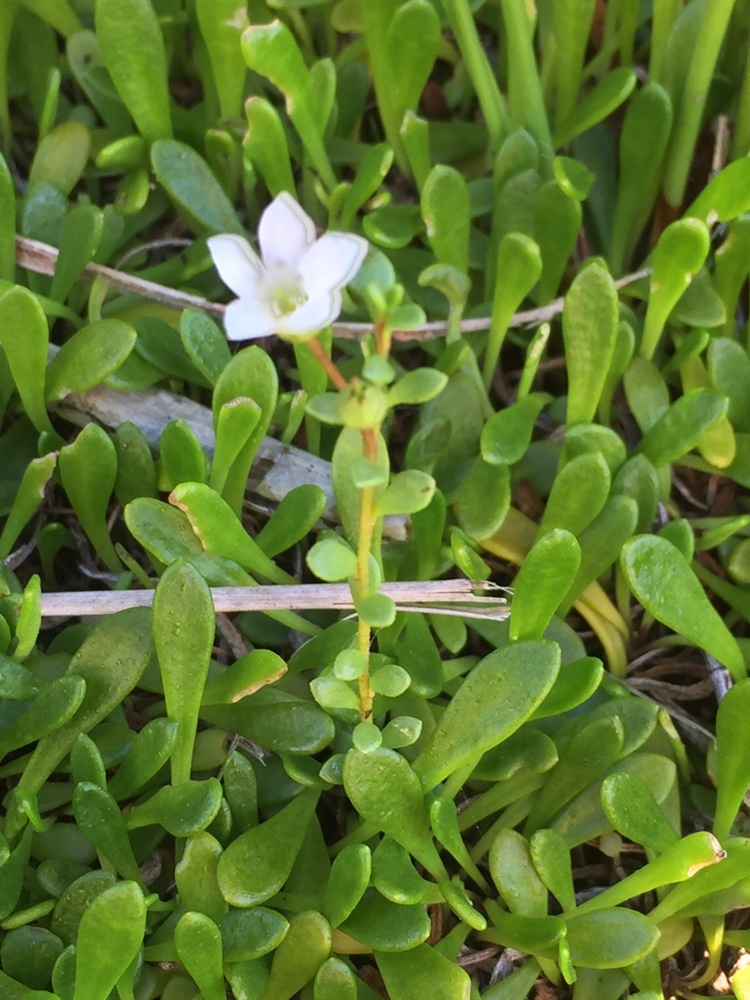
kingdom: Plantae
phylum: Tracheophyta
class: Magnoliopsida
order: Ericales
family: Primulaceae
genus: Samolus
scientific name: Samolus repens
